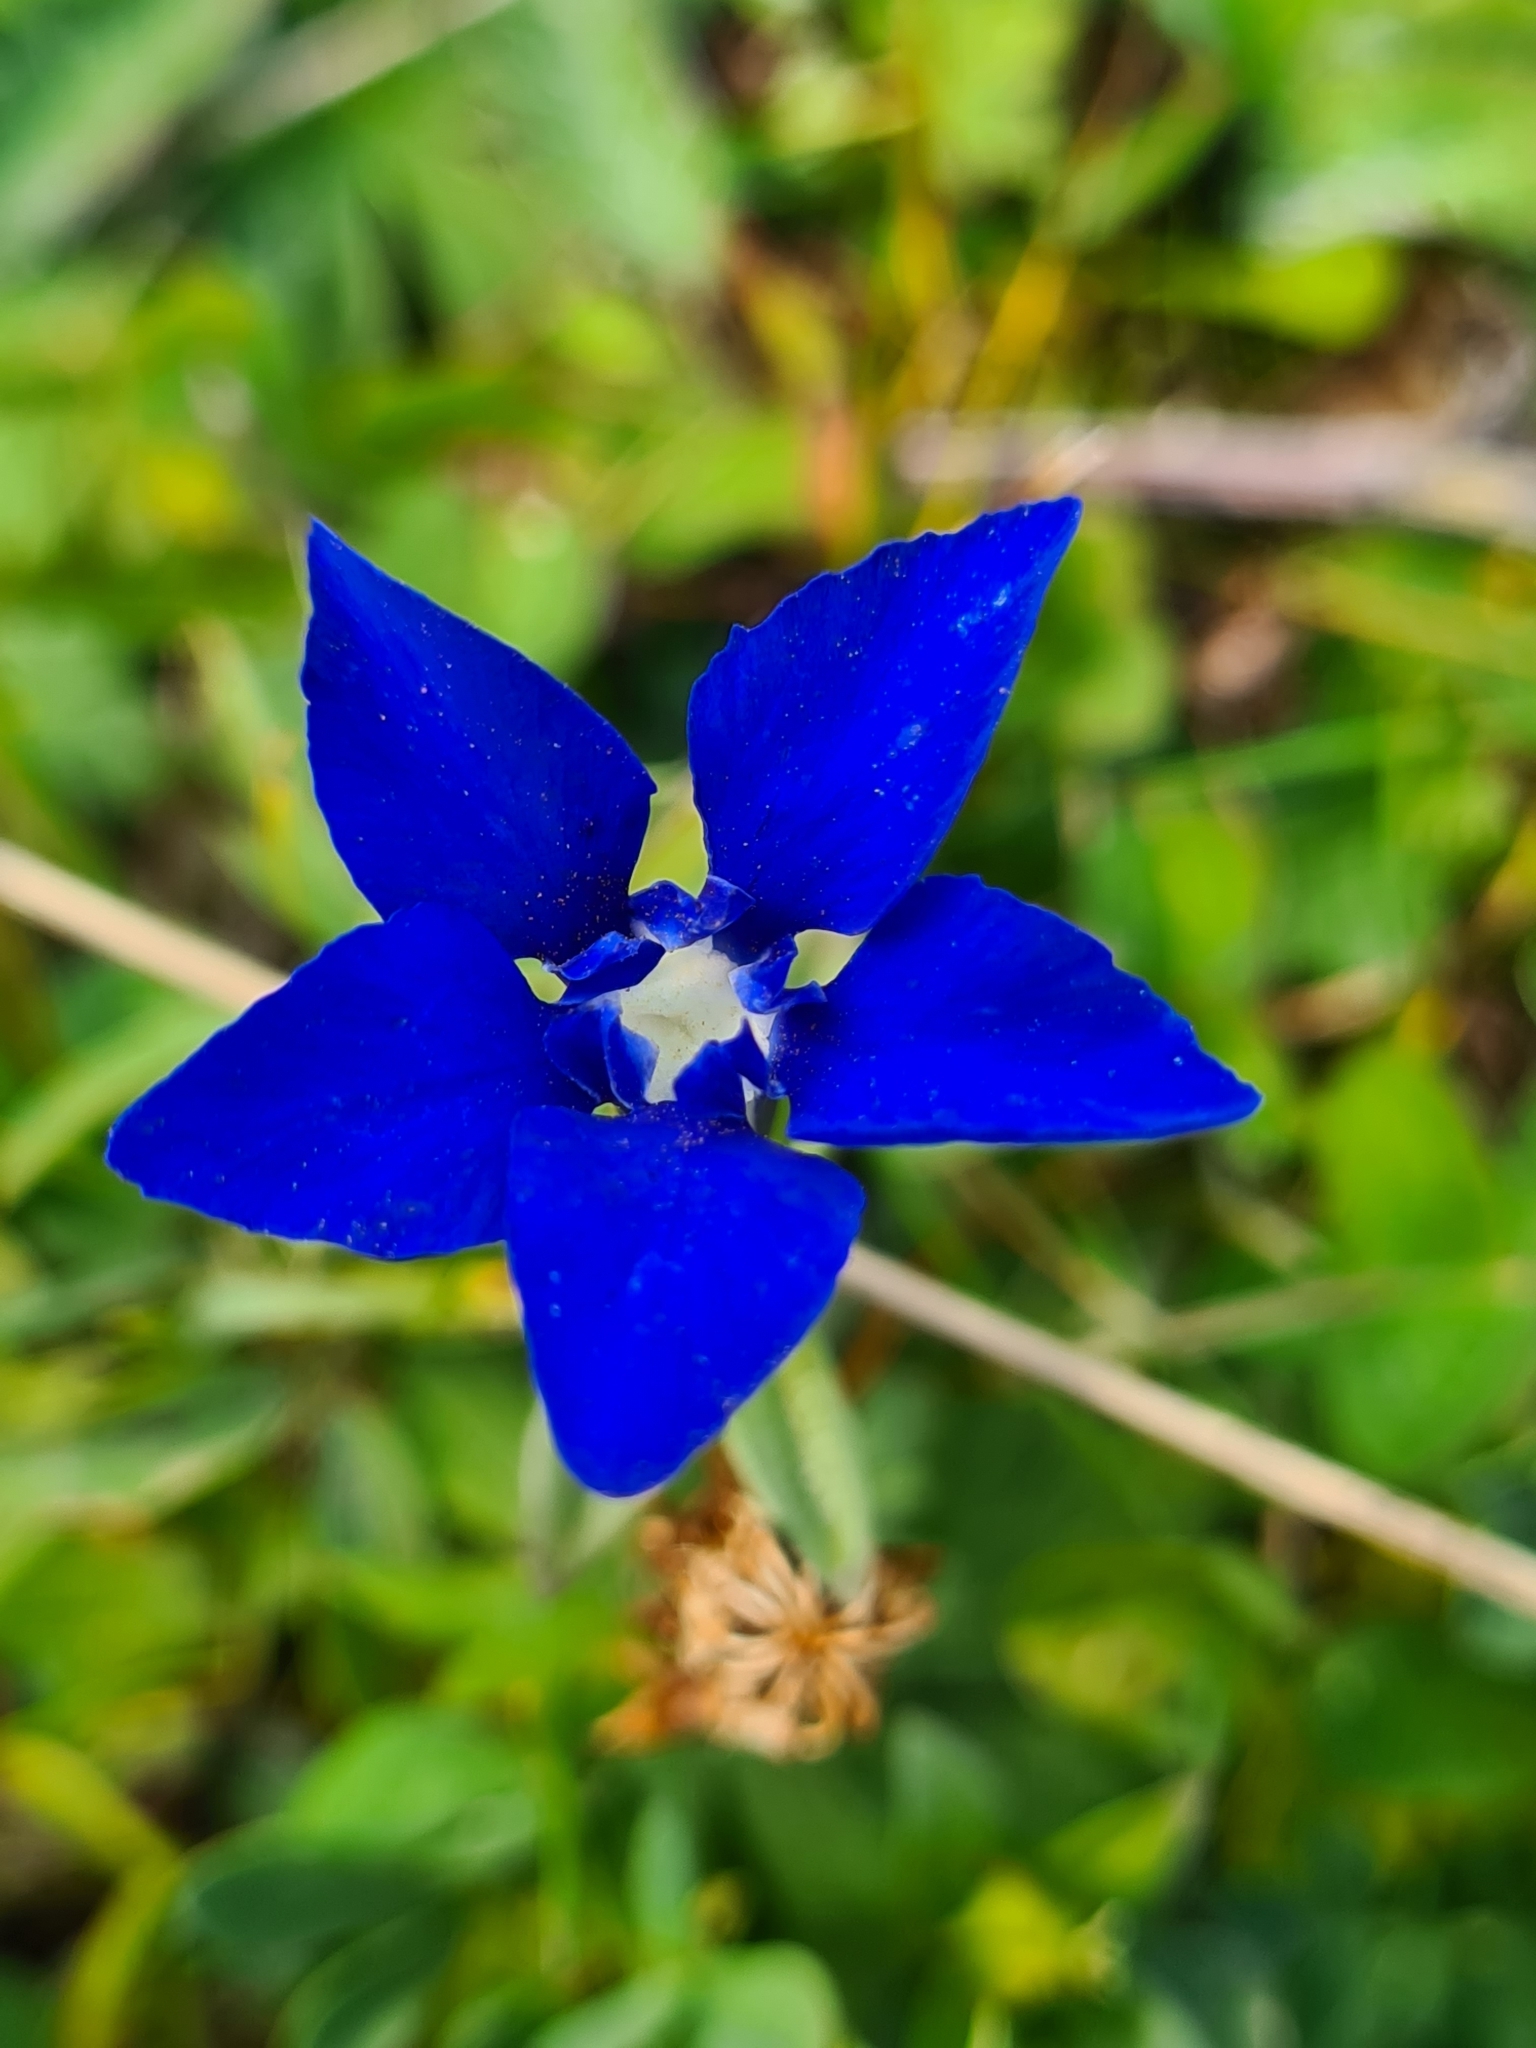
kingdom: Plantae
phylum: Tracheophyta
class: Magnoliopsida
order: Gentianales
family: Gentianaceae
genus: Gentiana
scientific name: Gentiana verna
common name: Spring gentian
